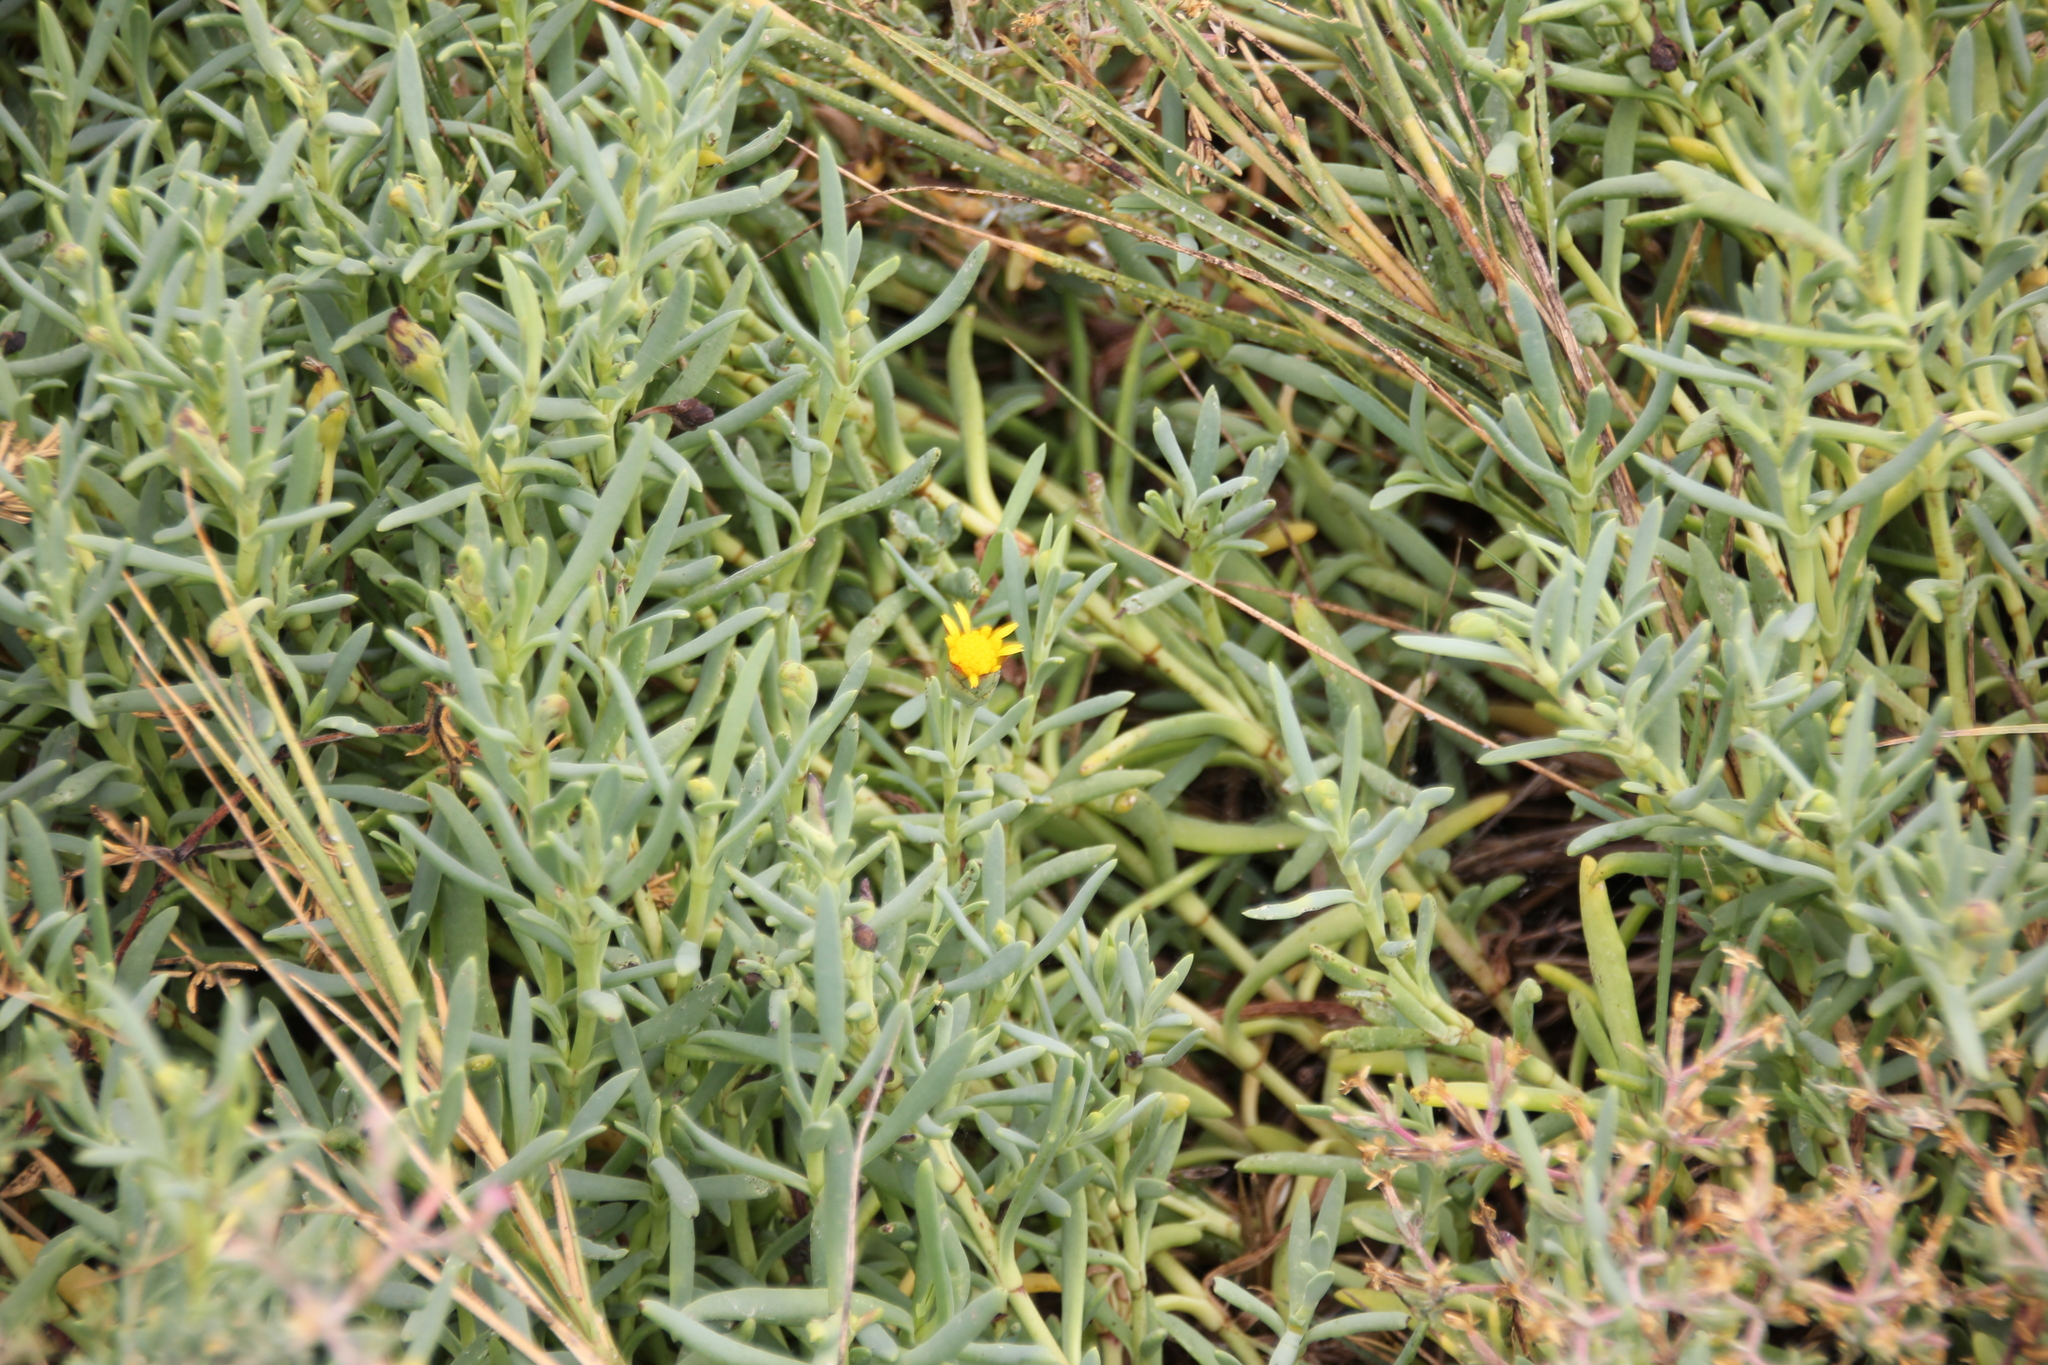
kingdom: Plantae
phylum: Tracheophyta
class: Magnoliopsida
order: Asterales
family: Asteraceae
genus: Jaumea
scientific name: Jaumea carnosa
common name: Fleshy jaumea
